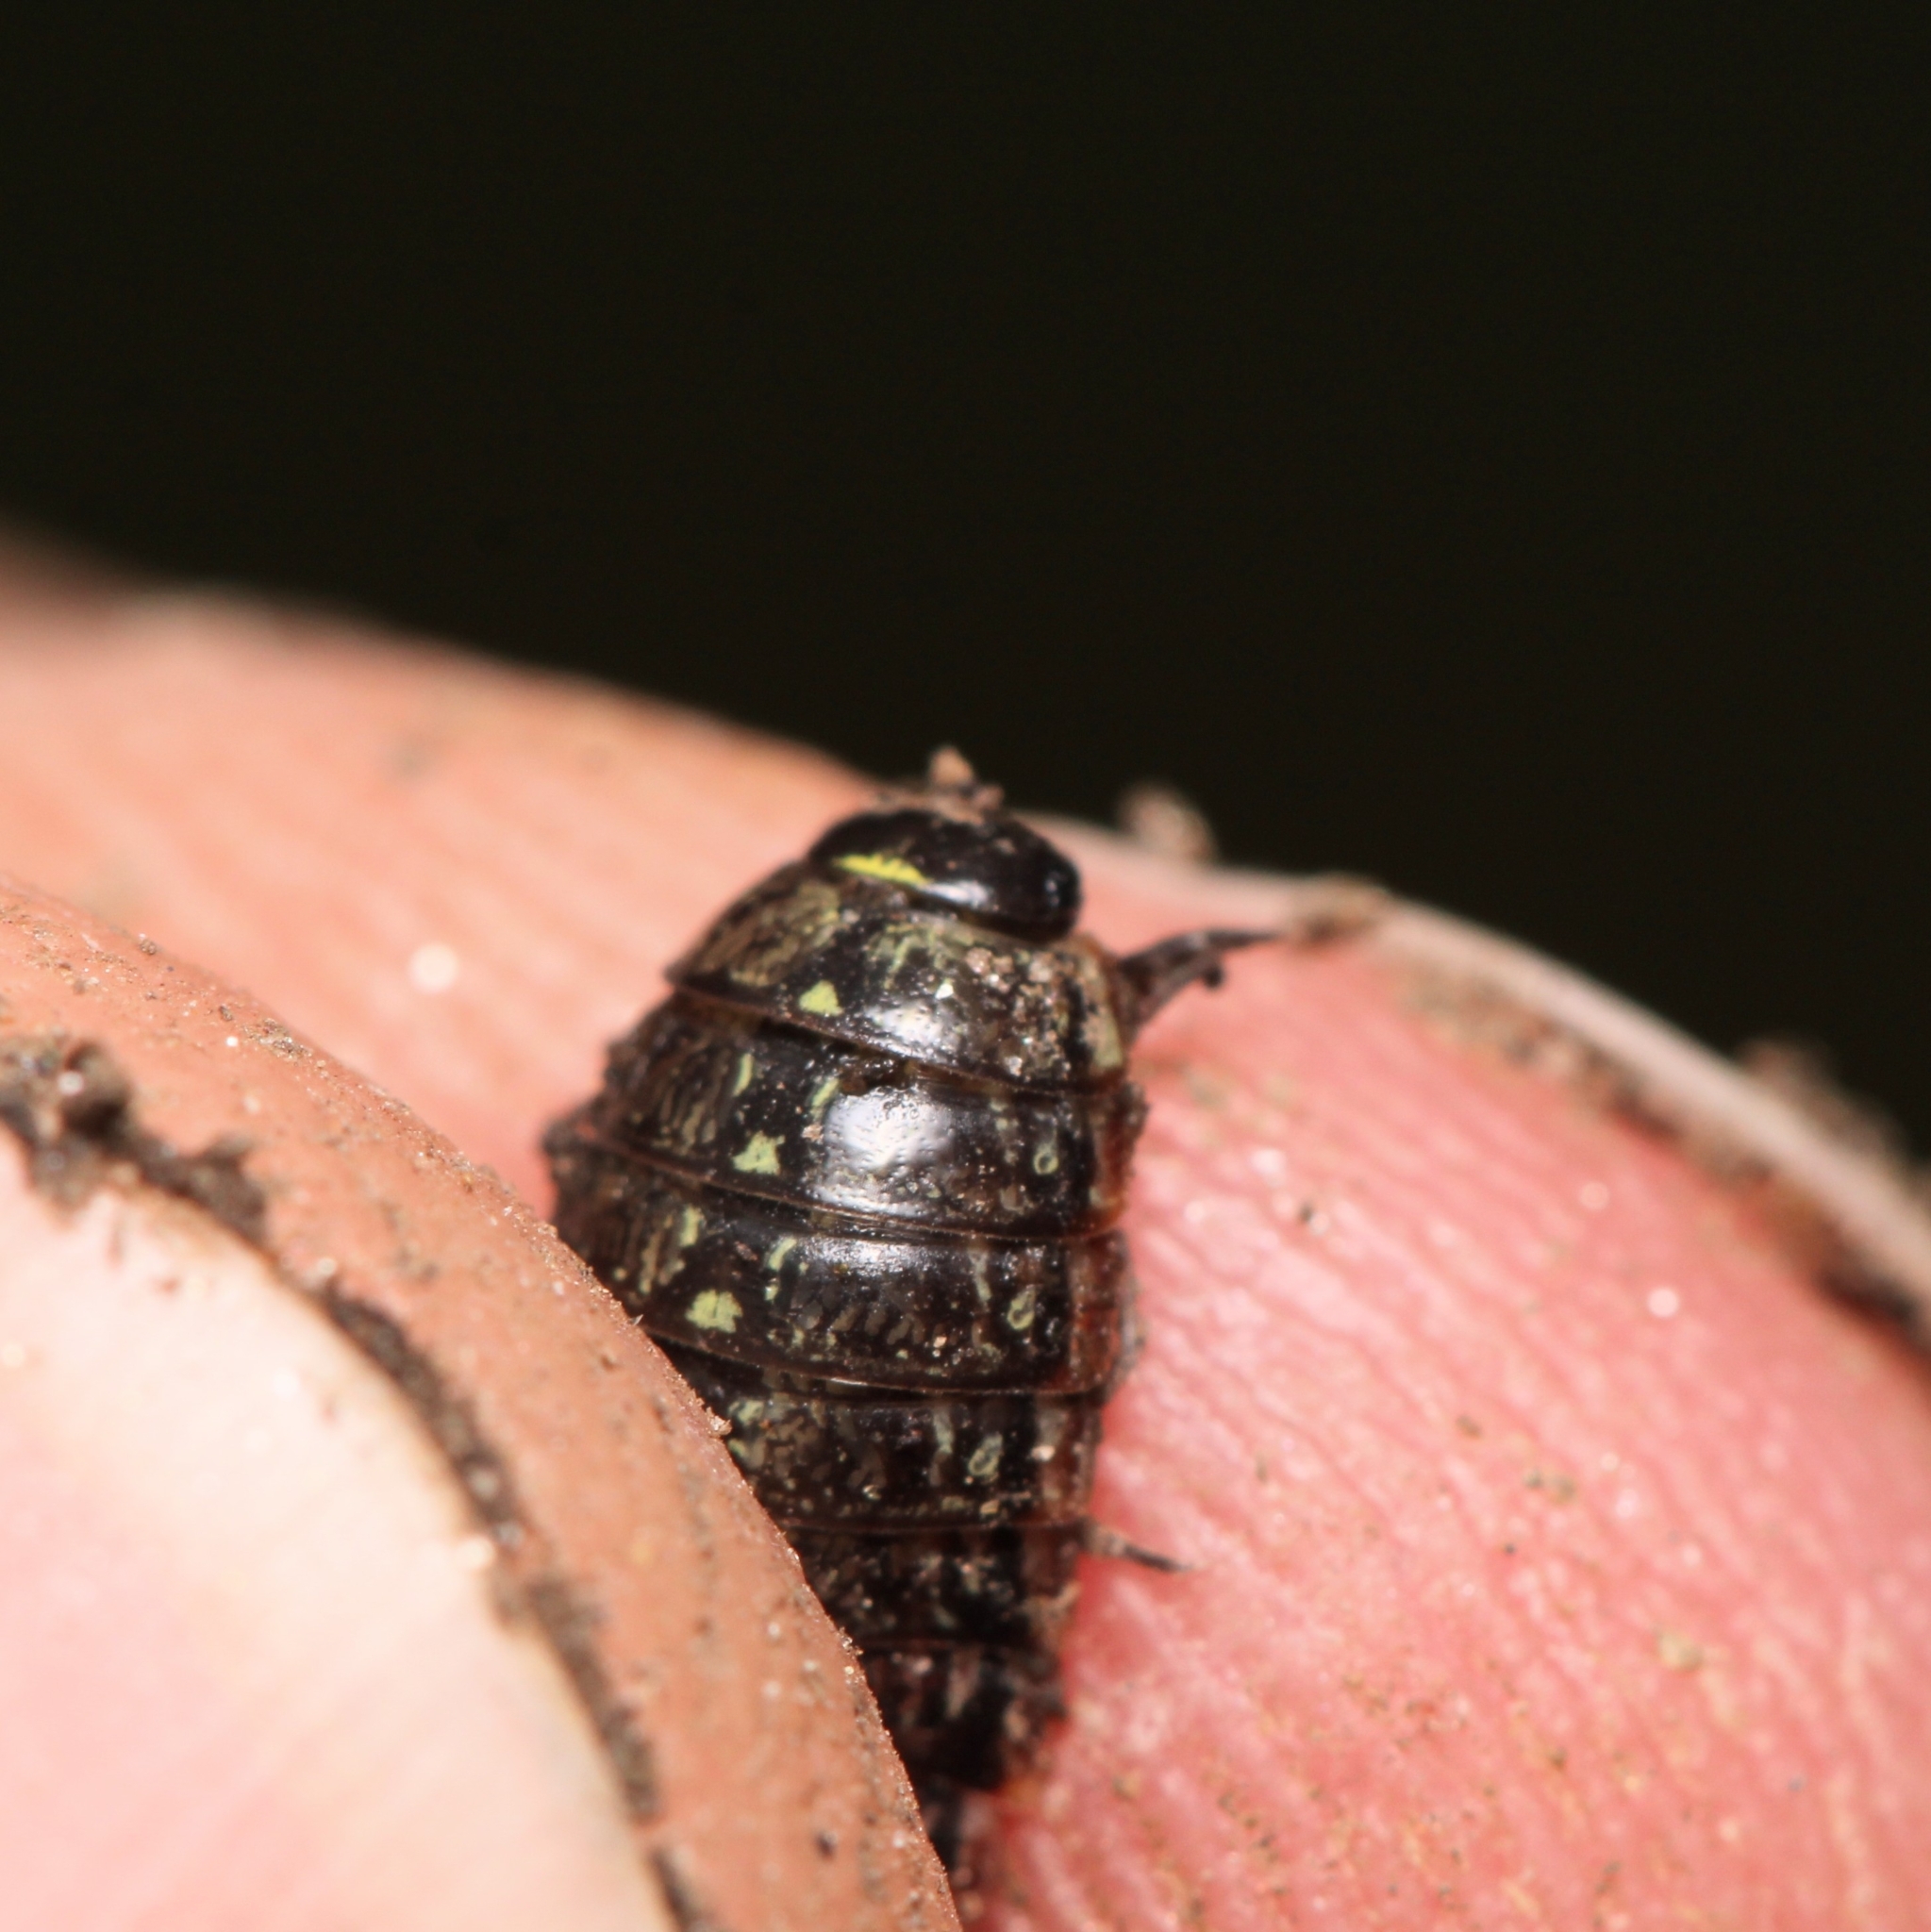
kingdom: Animalia
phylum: Arthropoda
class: Malacostraca
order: Isopoda
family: Philosciidae
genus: Philoscia
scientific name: Philoscia muscorum
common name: Common striped woodlouse
